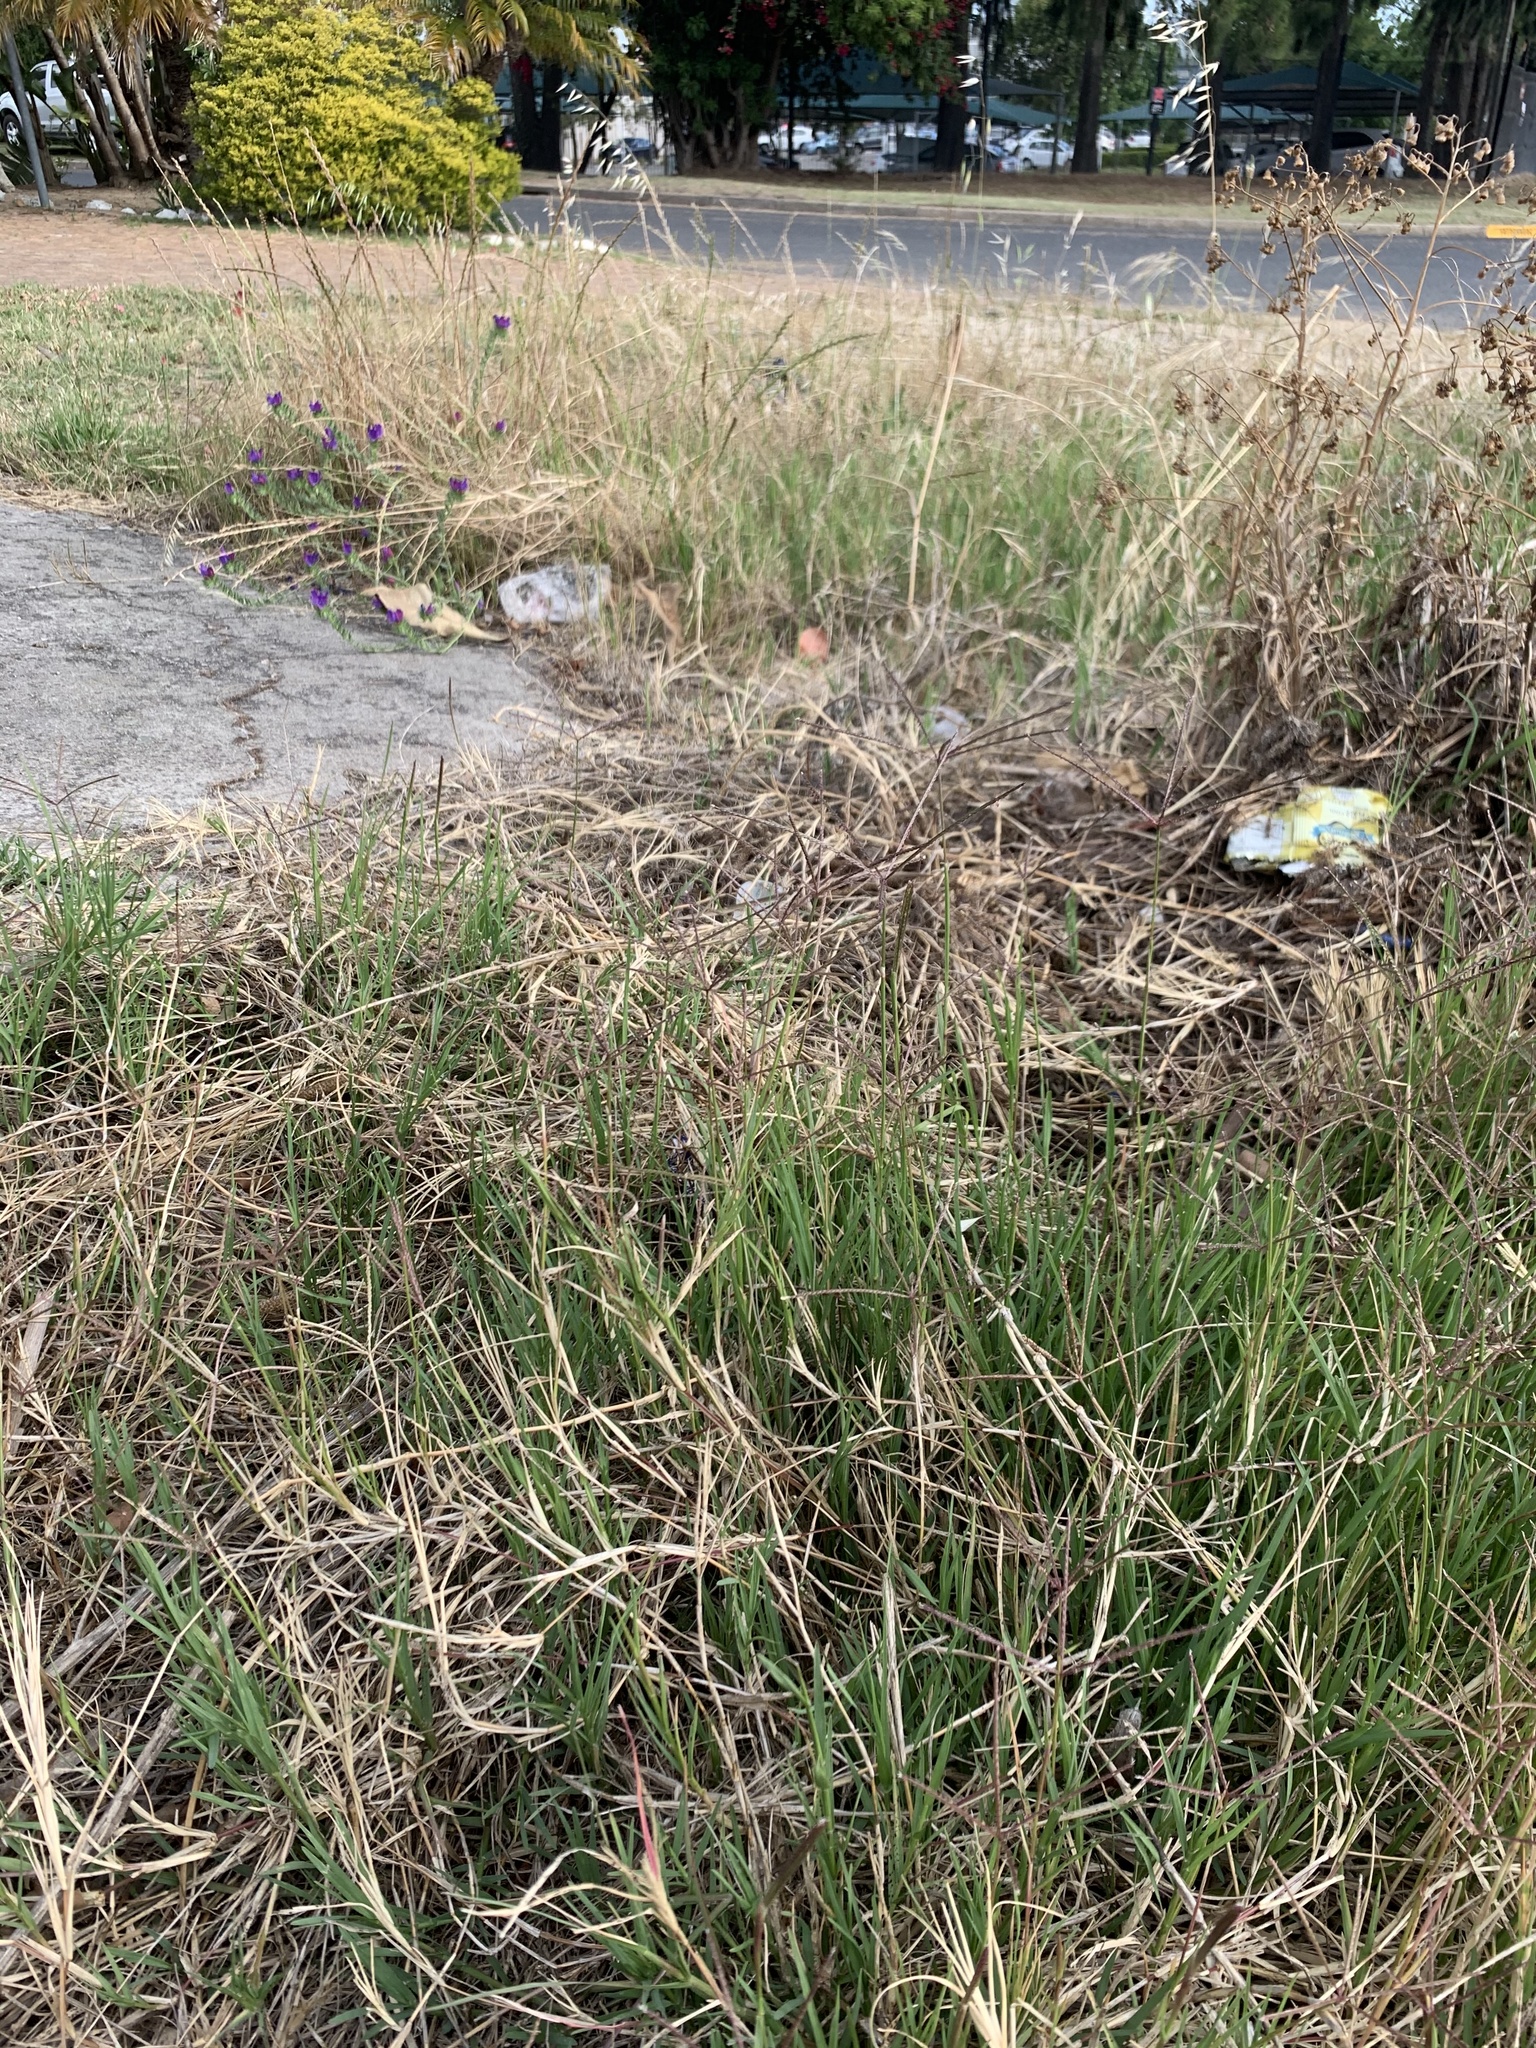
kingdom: Plantae
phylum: Tracheophyta
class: Liliopsida
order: Poales
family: Poaceae
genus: Cynodon
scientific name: Cynodon dactylon
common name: Bermuda grass
